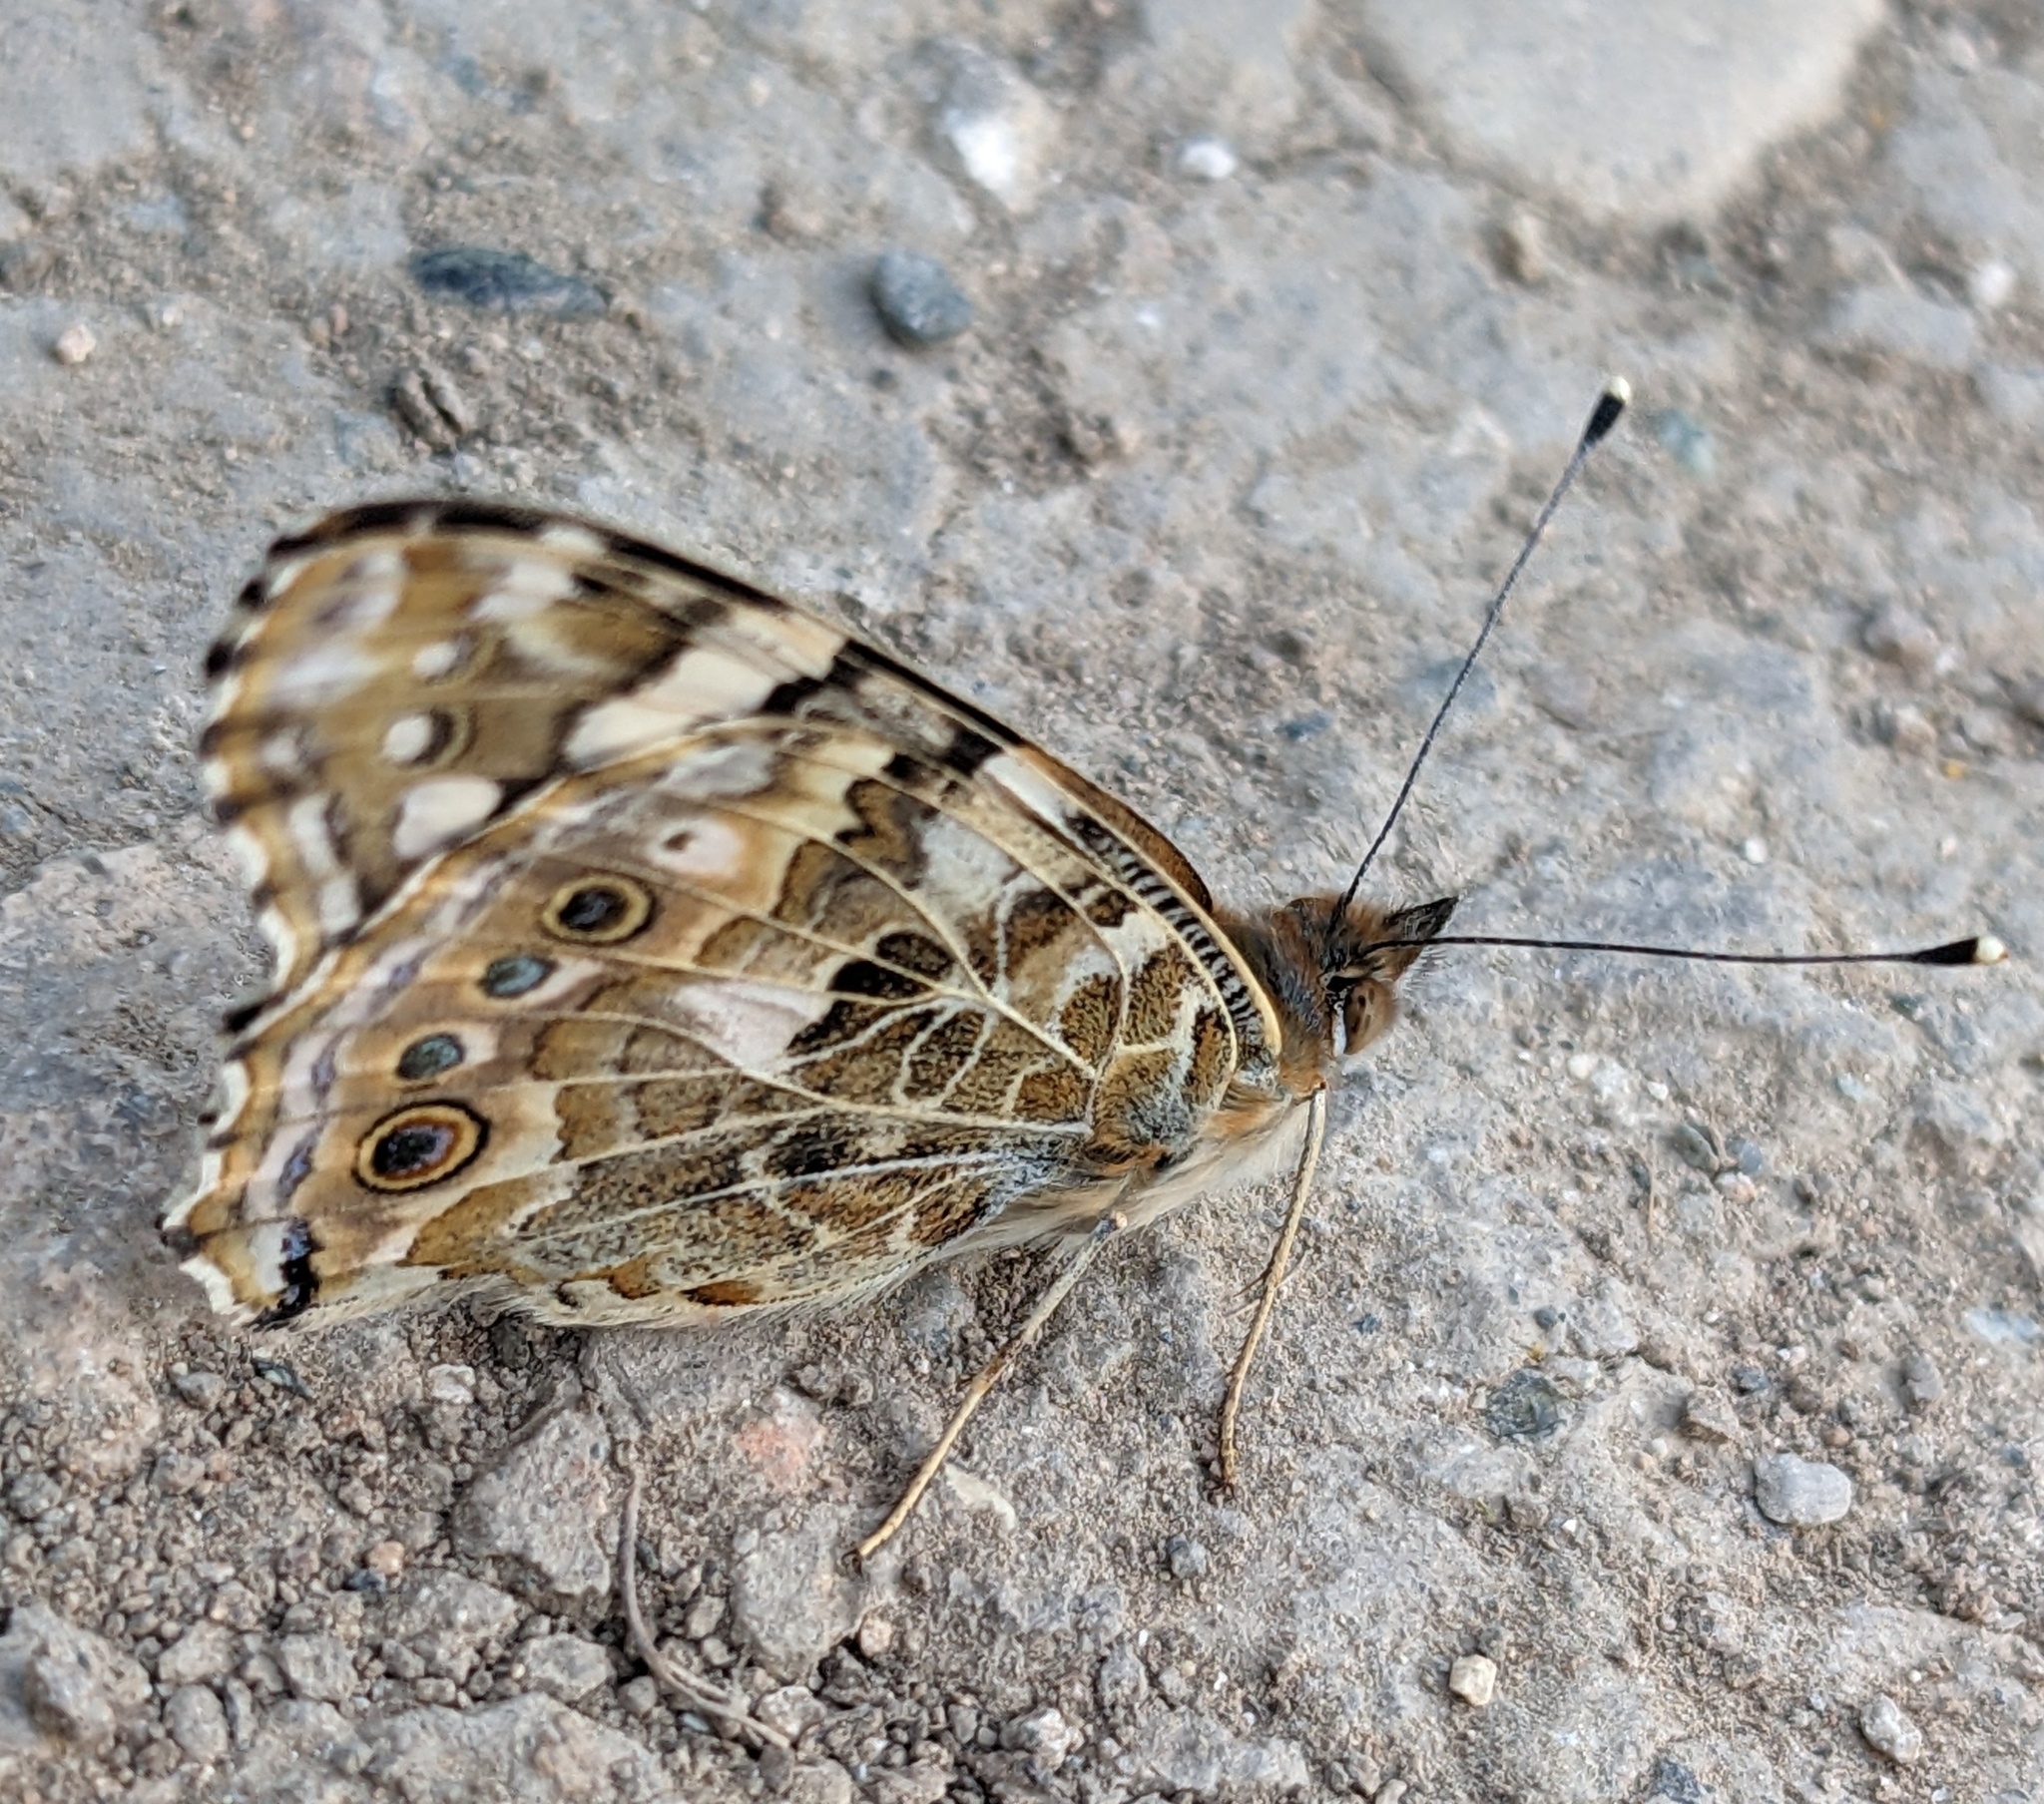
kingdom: Animalia
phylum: Arthropoda
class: Insecta
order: Lepidoptera
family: Nymphalidae
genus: Vanessa
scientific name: Vanessa cardui
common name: Painted lady
